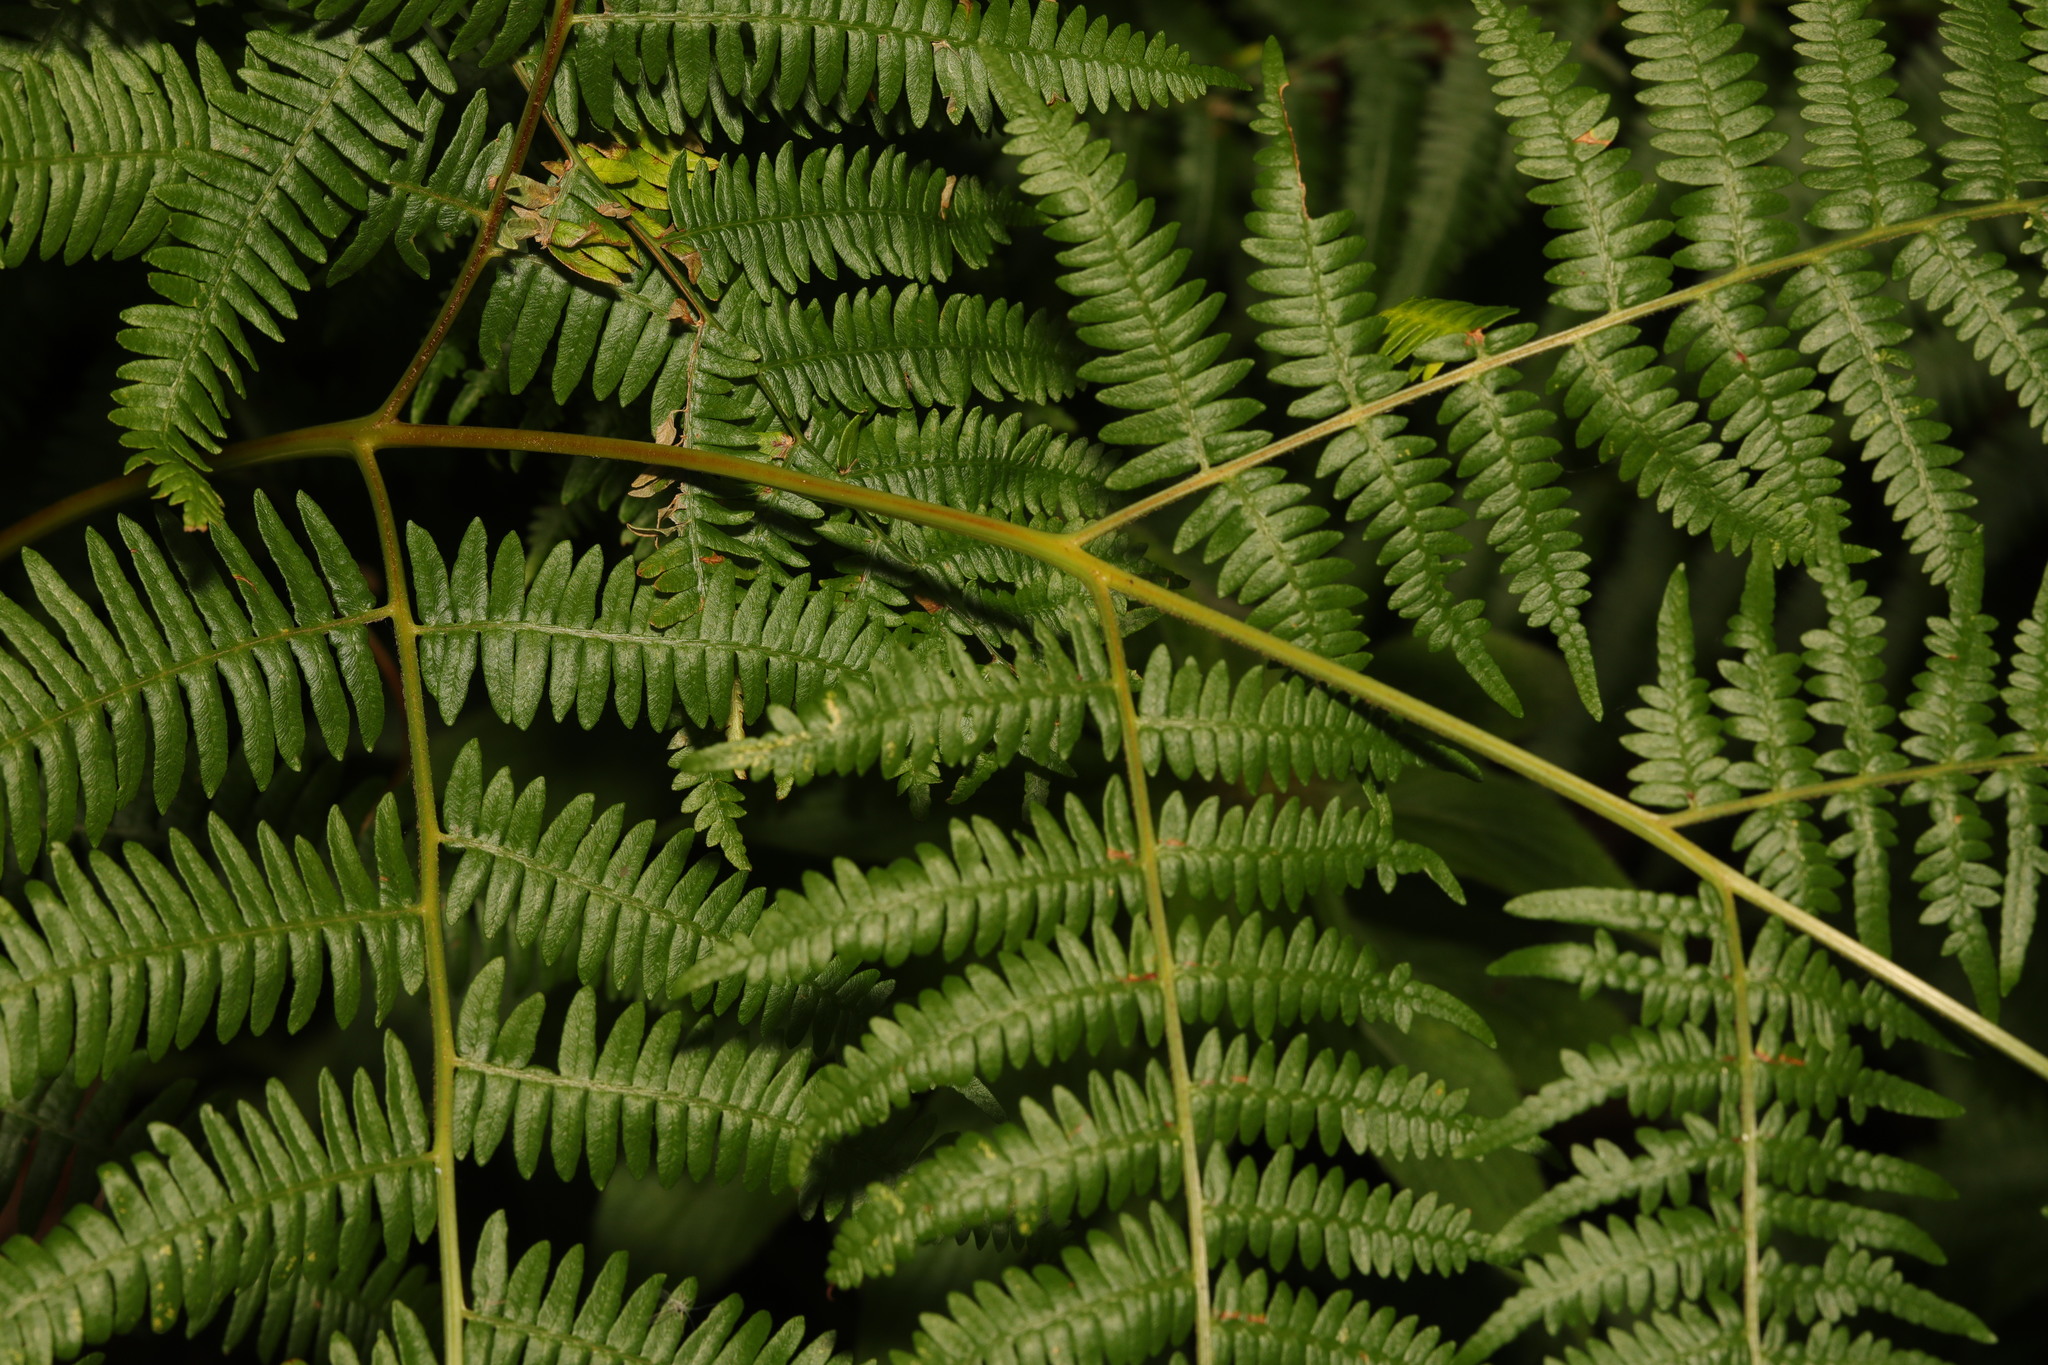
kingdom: Plantae
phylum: Tracheophyta
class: Polypodiopsida
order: Polypodiales
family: Dennstaedtiaceae
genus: Pteridium
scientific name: Pteridium aquilinum
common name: Bracken
